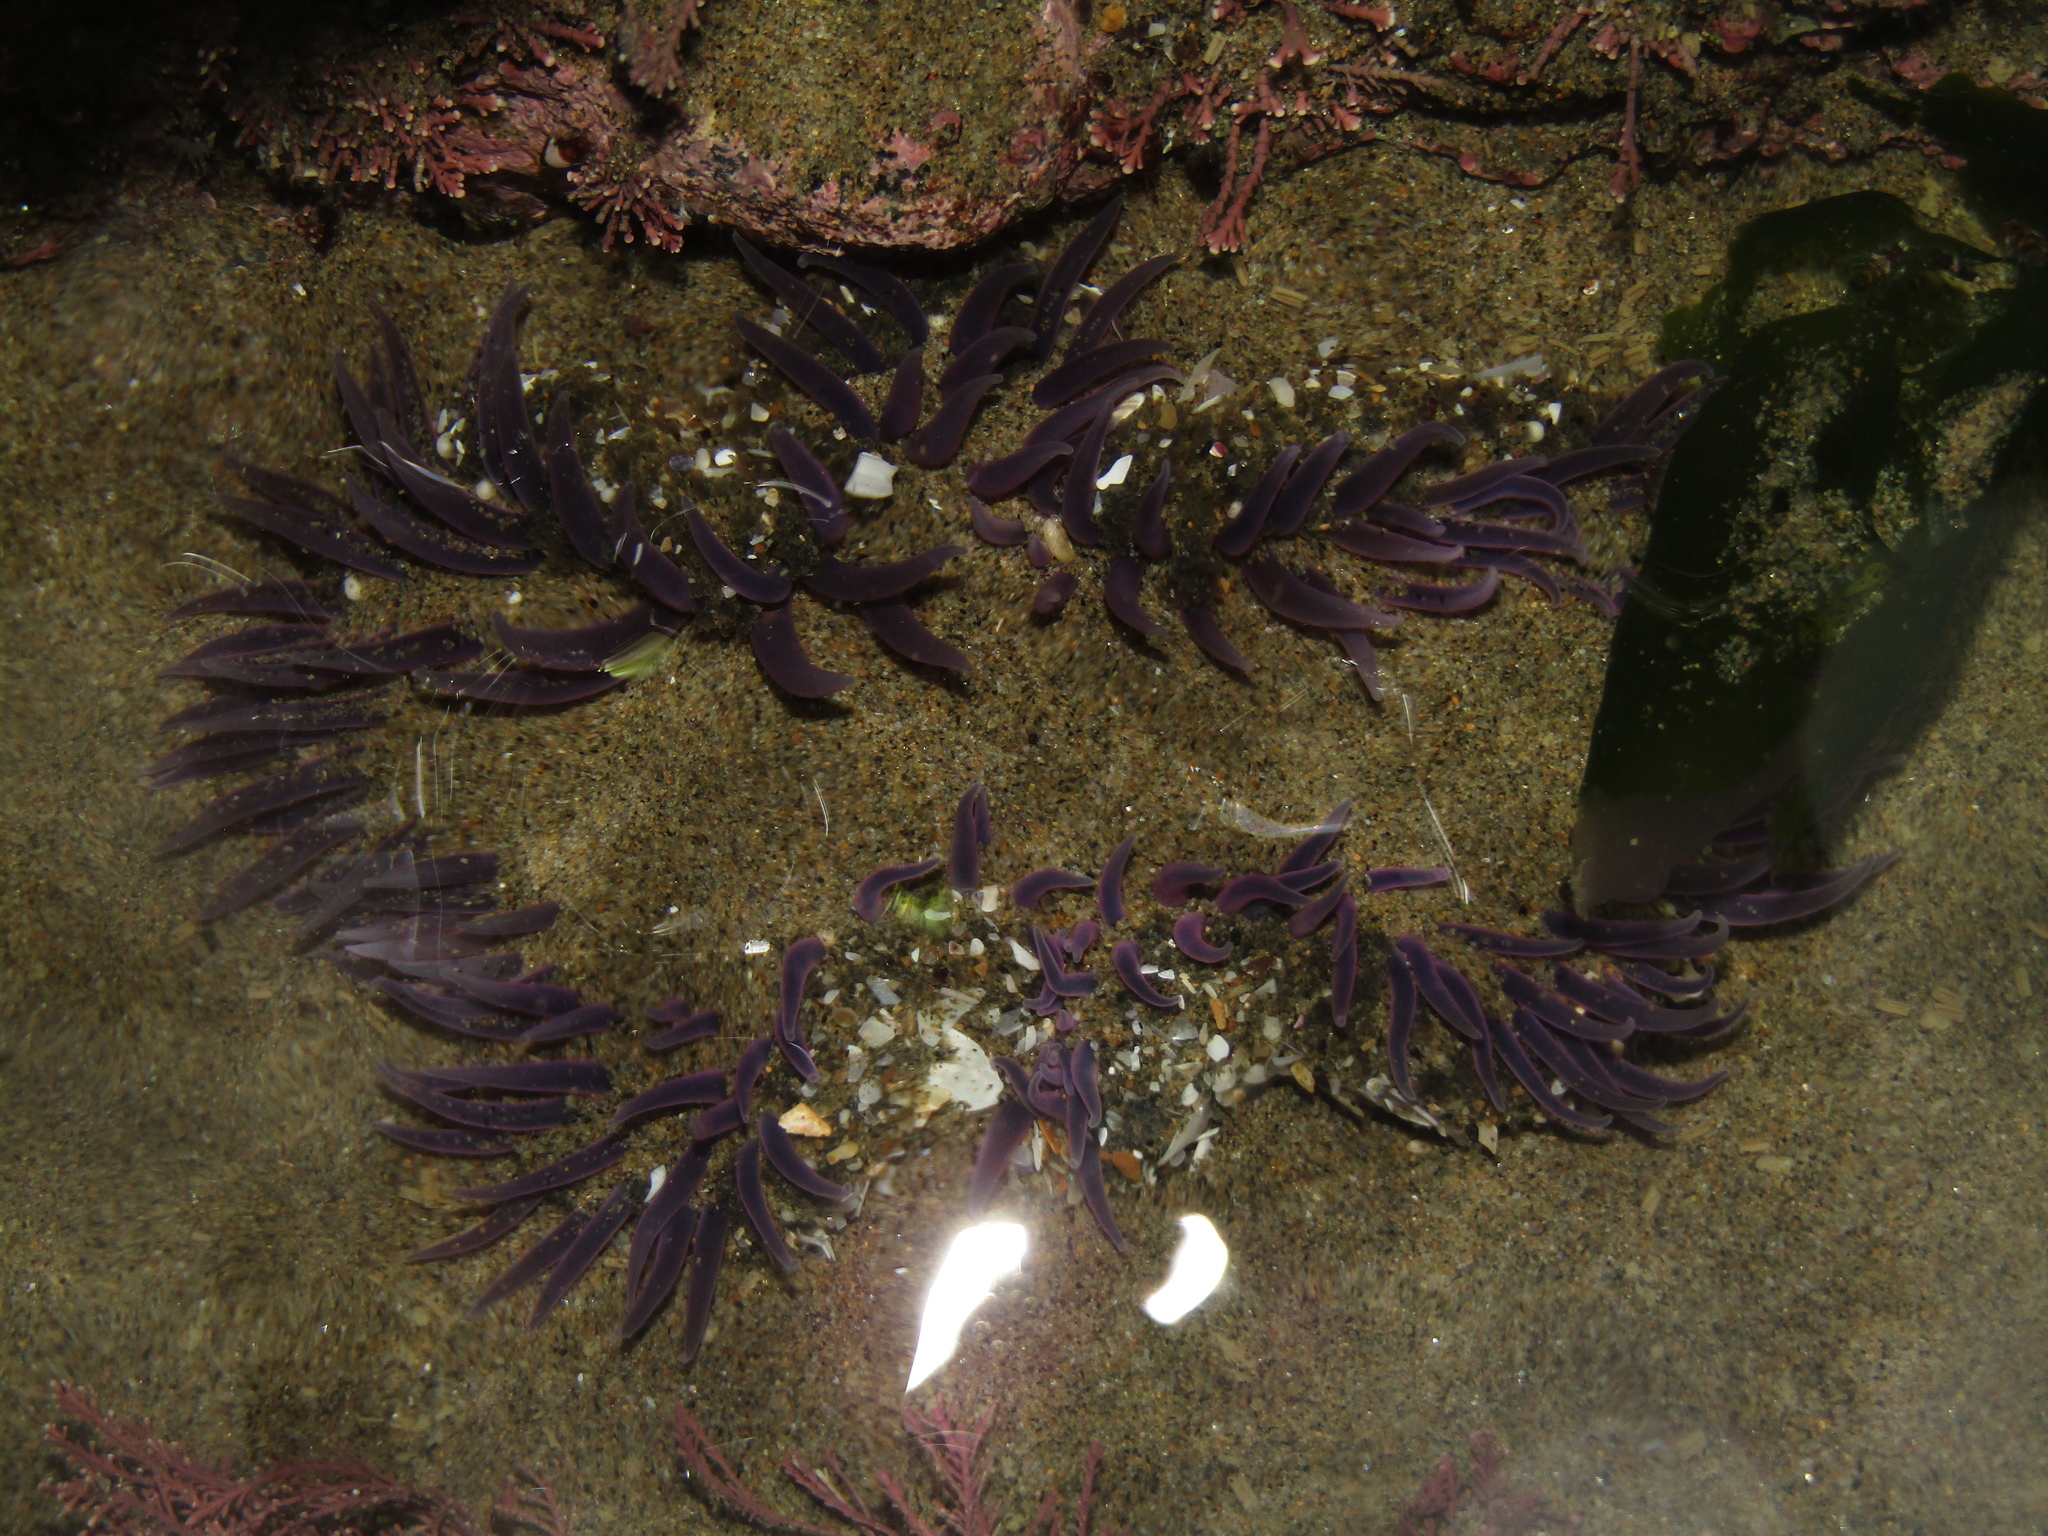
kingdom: Animalia
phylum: Cnidaria
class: Anthozoa
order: Actiniaria
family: Actiniidae
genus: Oulactis
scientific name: Oulactis magna
